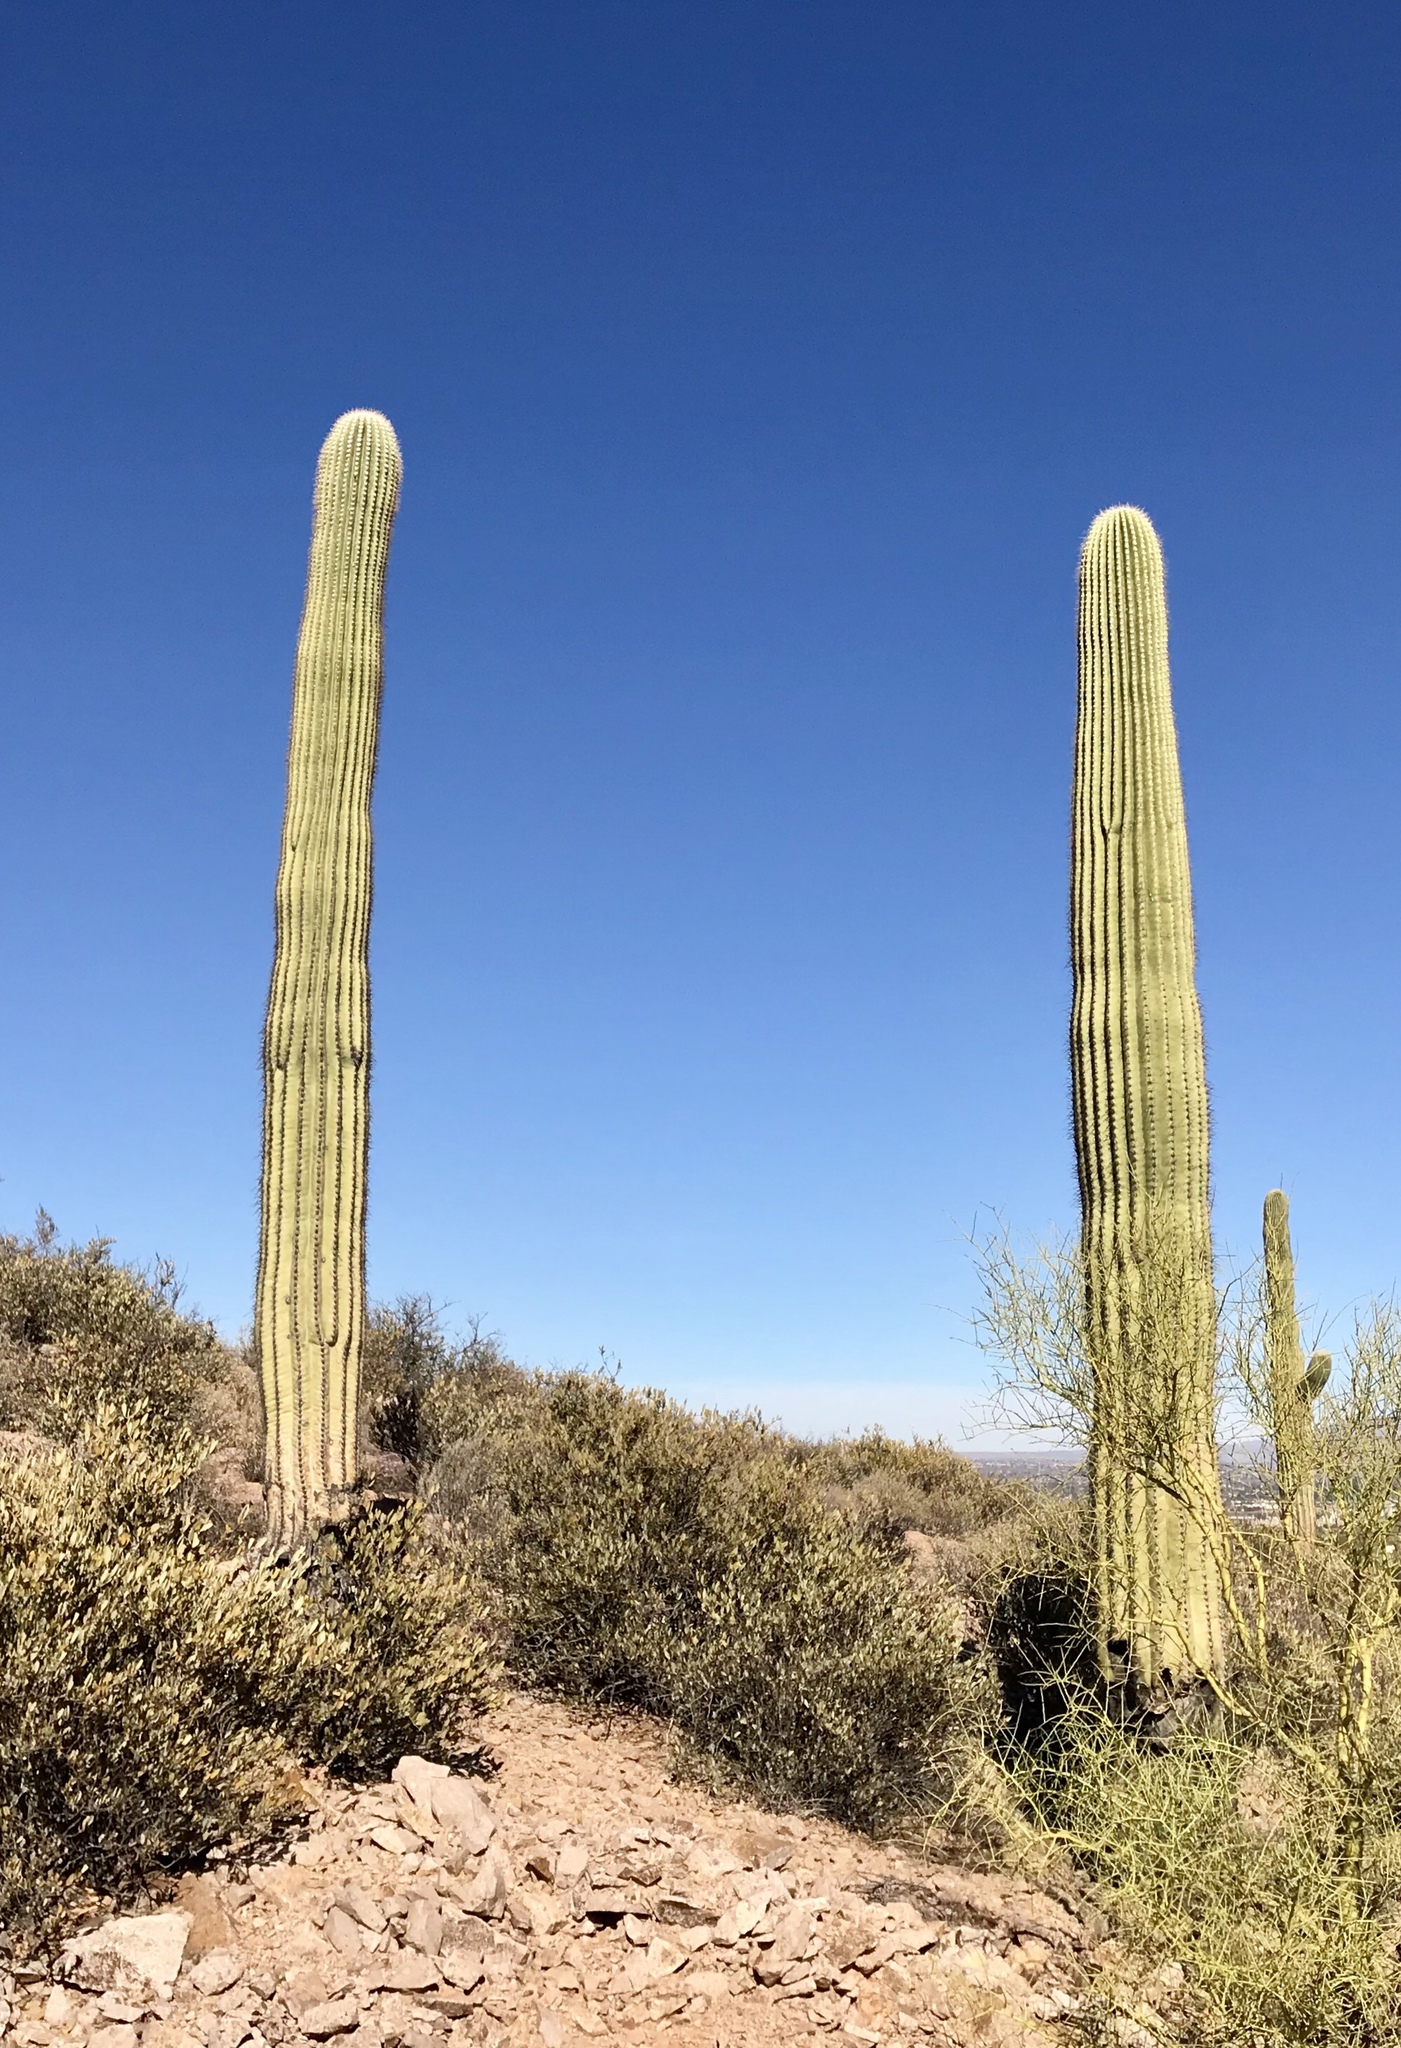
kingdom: Plantae
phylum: Tracheophyta
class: Magnoliopsida
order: Caryophyllales
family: Cactaceae
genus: Carnegiea
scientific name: Carnegiea gigantea
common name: Saguaro
